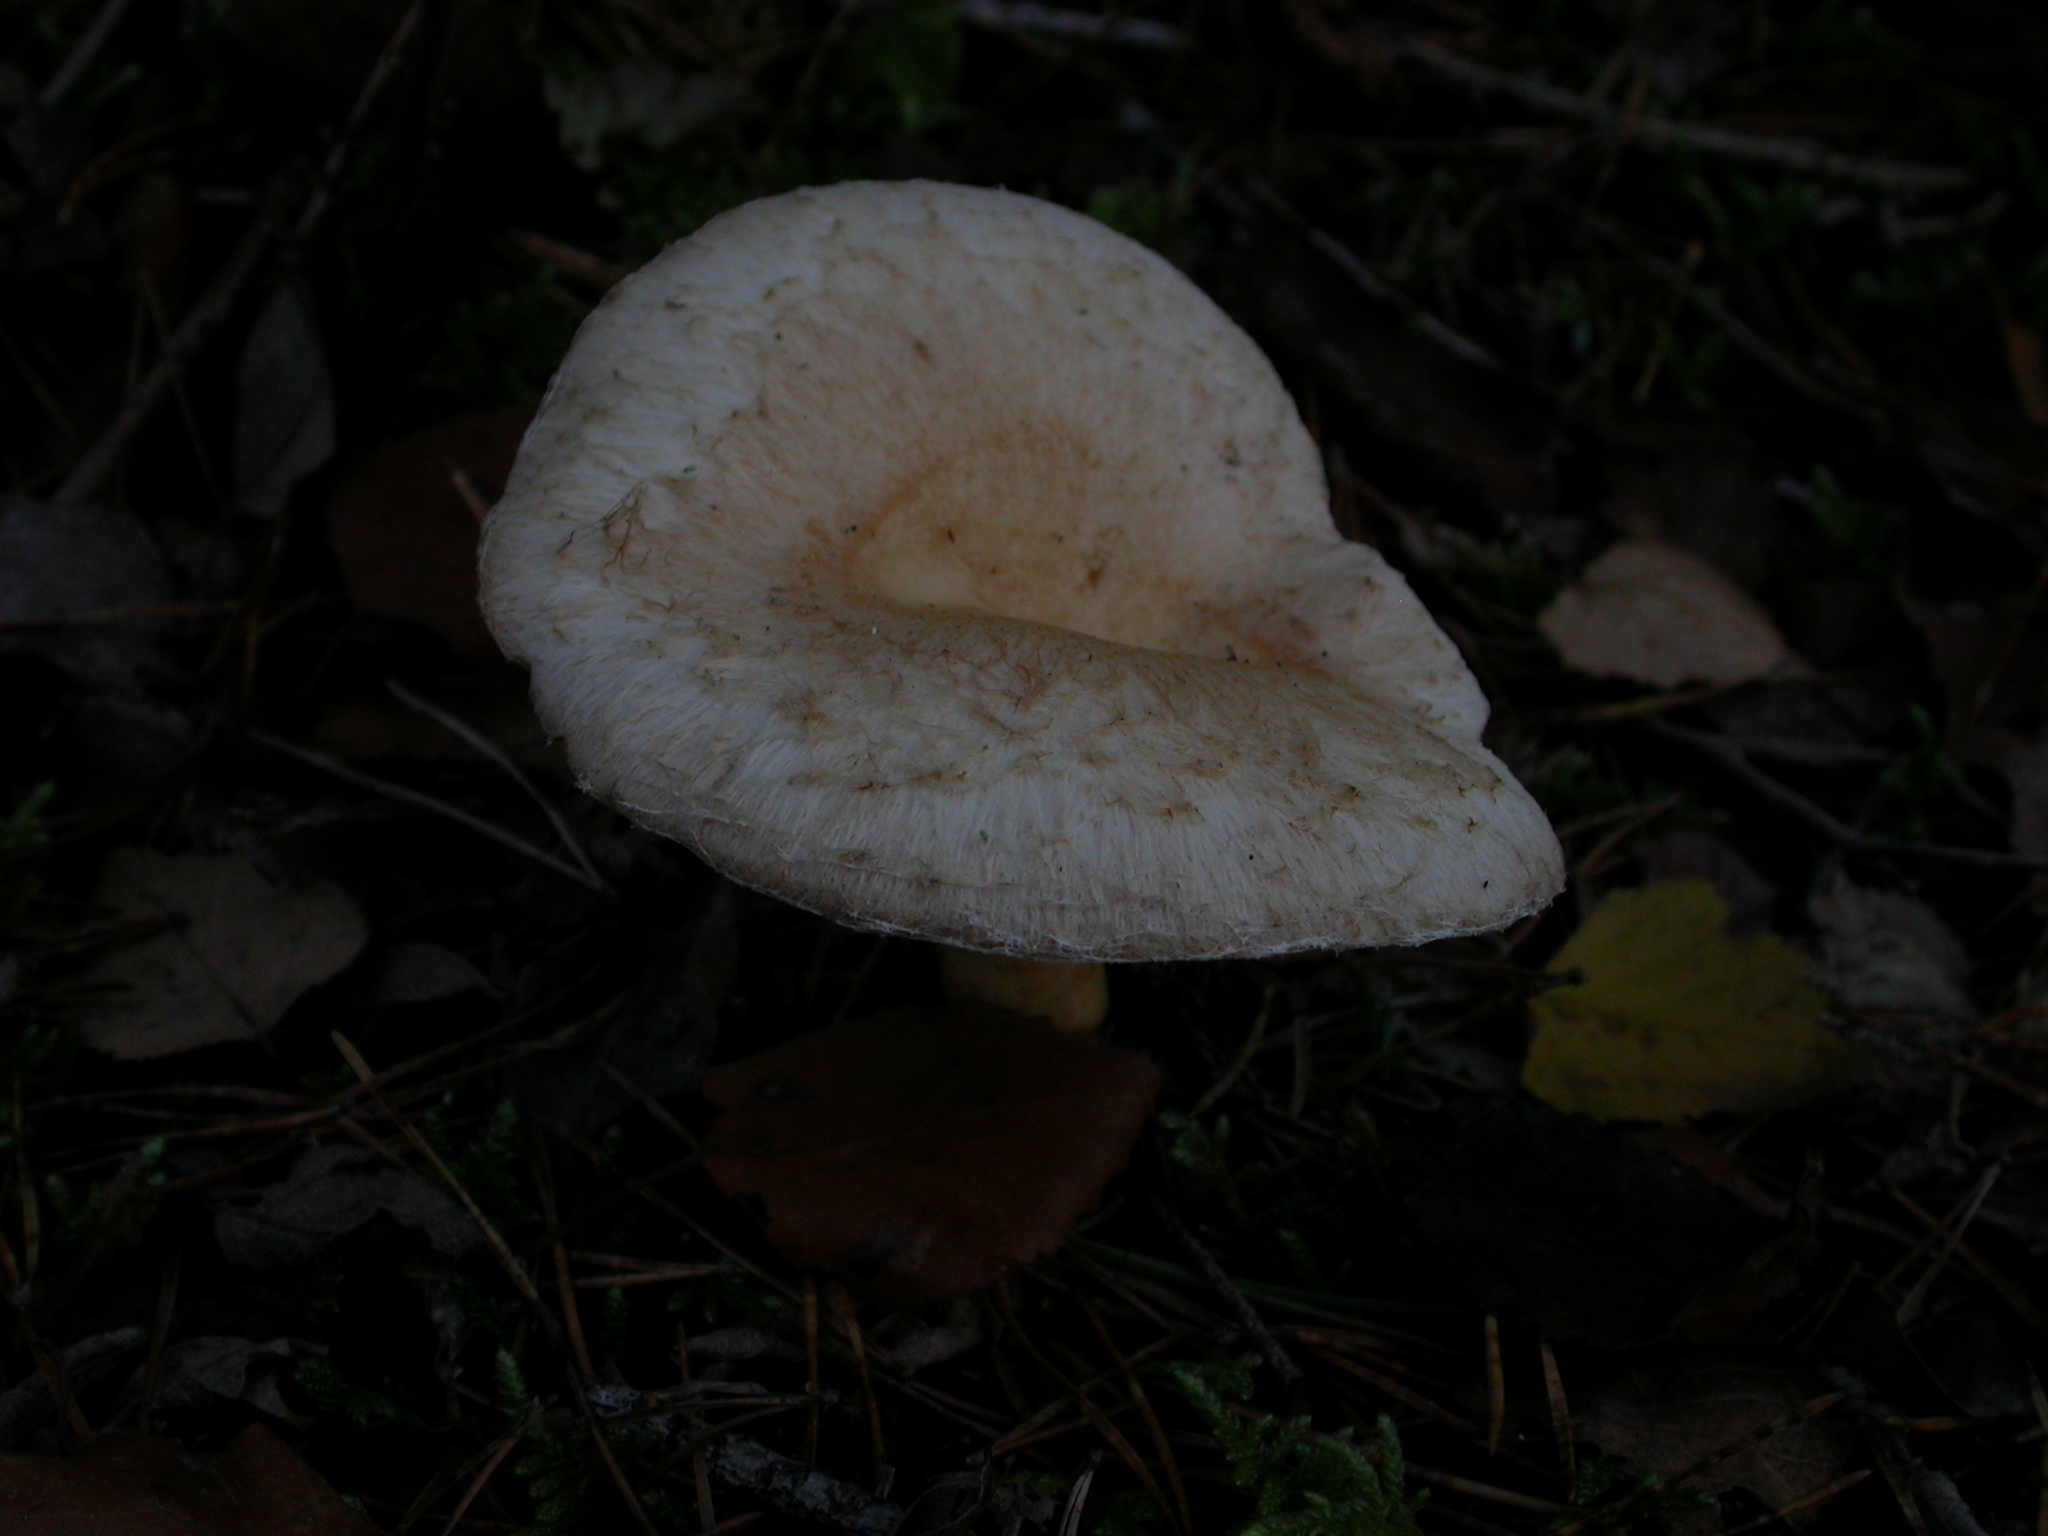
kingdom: Fungi
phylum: Basidiomycota
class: Agaricomycetes
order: Russulales
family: Russulaceae
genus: Lactarius
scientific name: Lactarius pubescens
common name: Bearded milkcap
